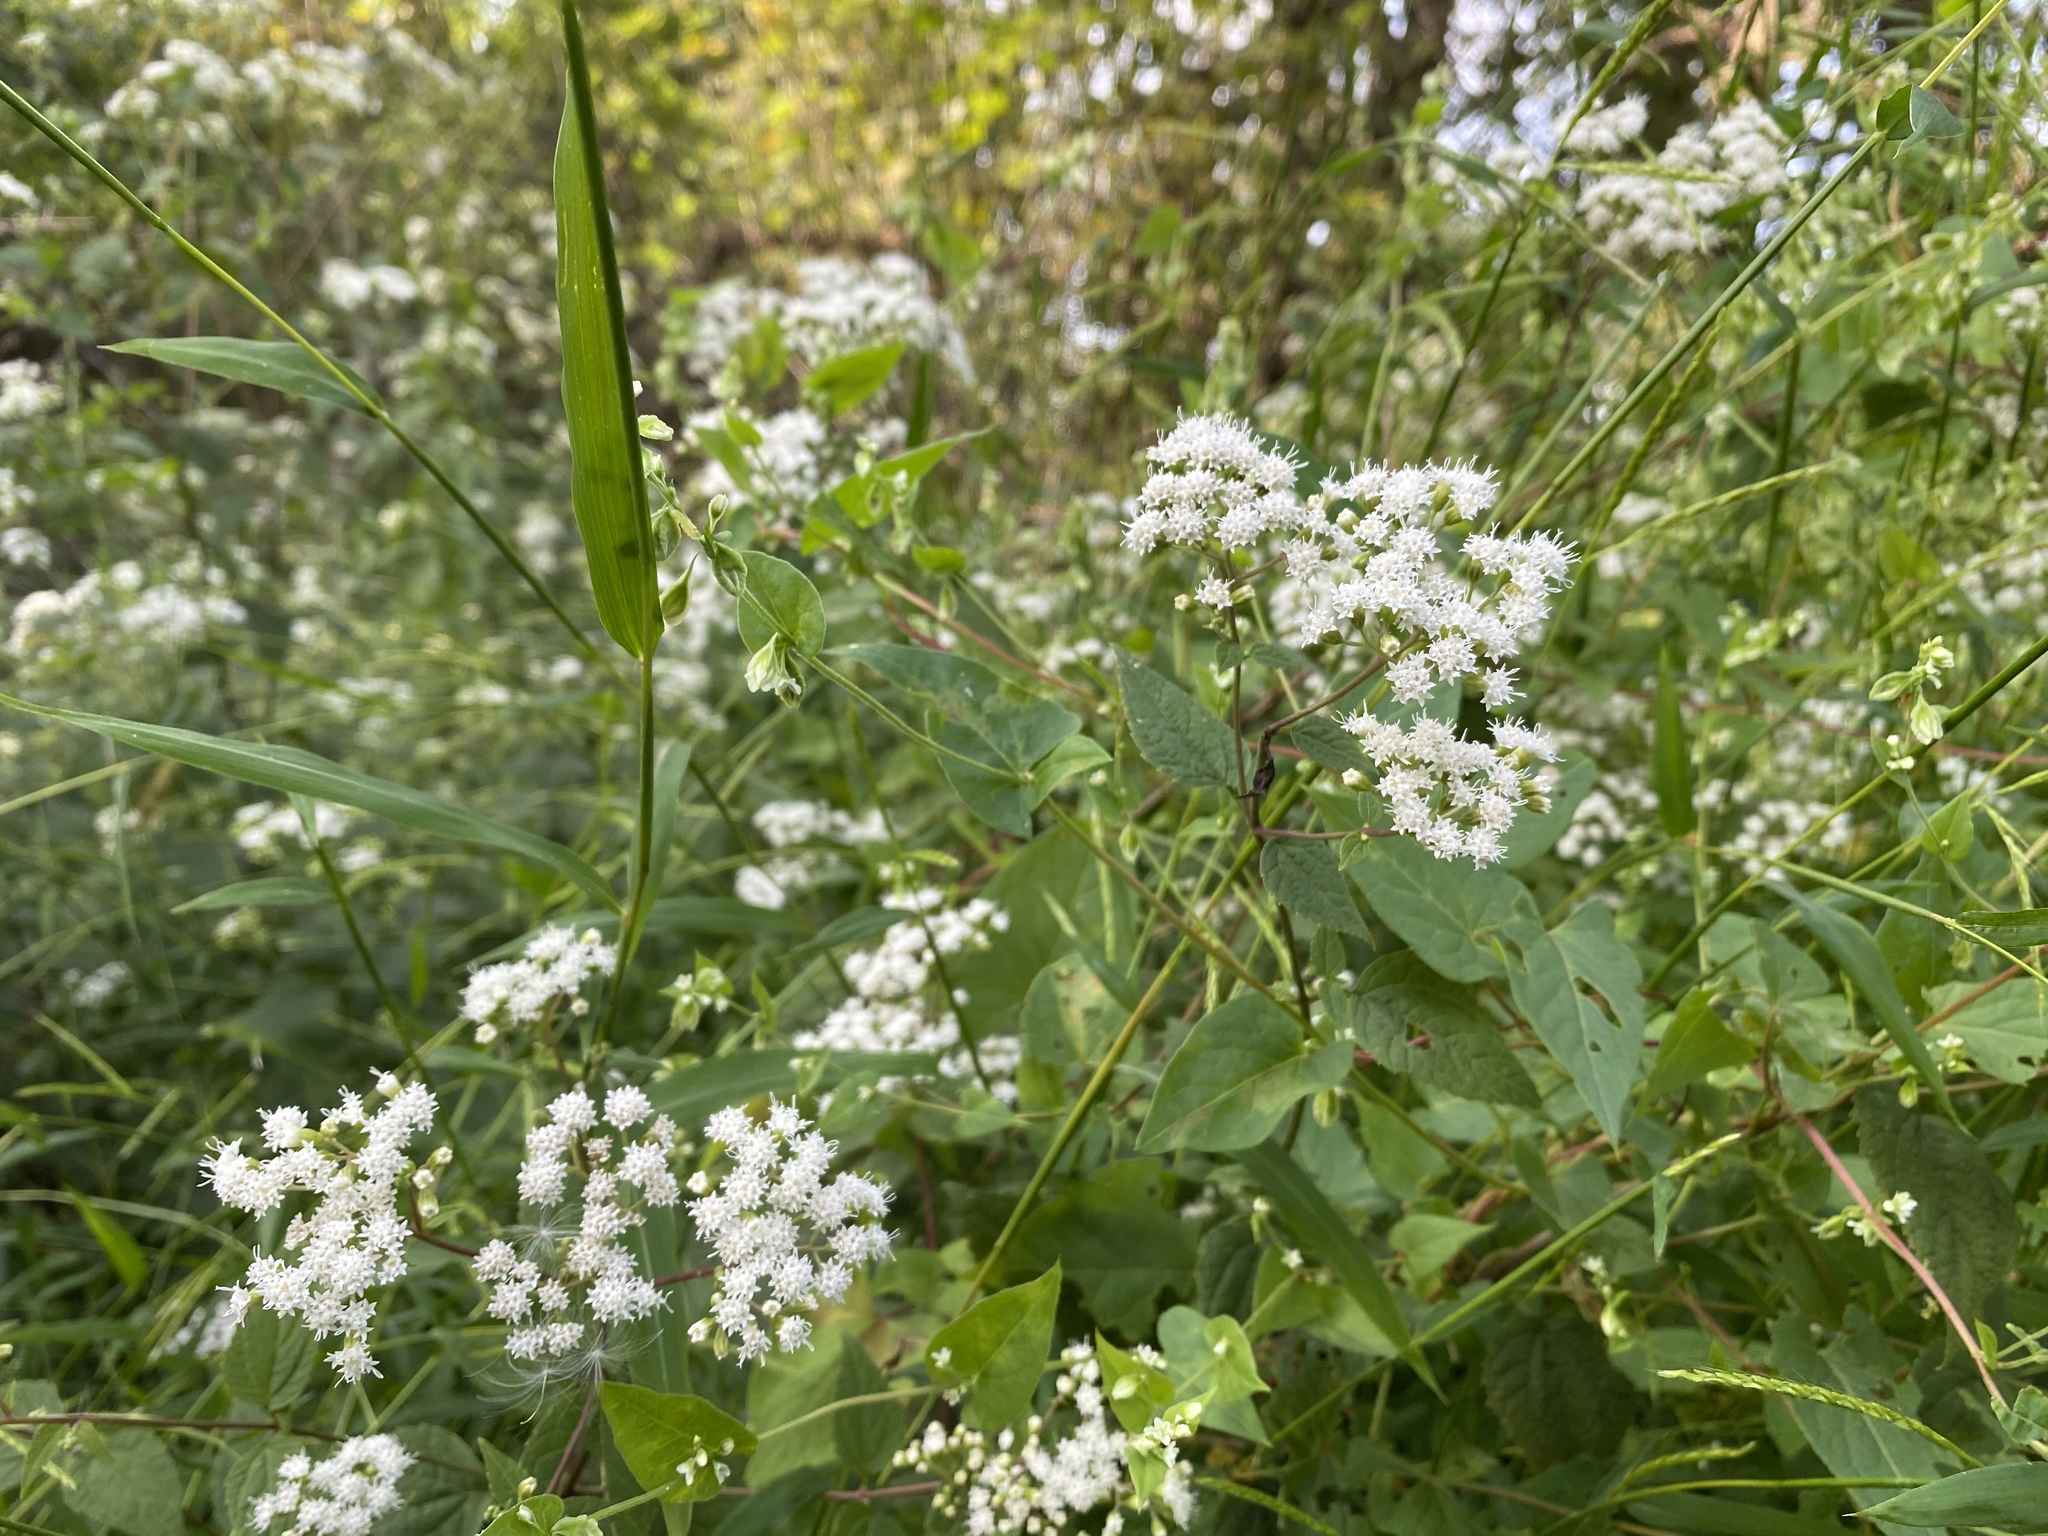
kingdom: Plantae
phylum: Tracheophyta
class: Magnoliopsida
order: Asterales
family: Asteraceae
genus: Ageratina
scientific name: Ageratina altissima
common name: White snakeroot
